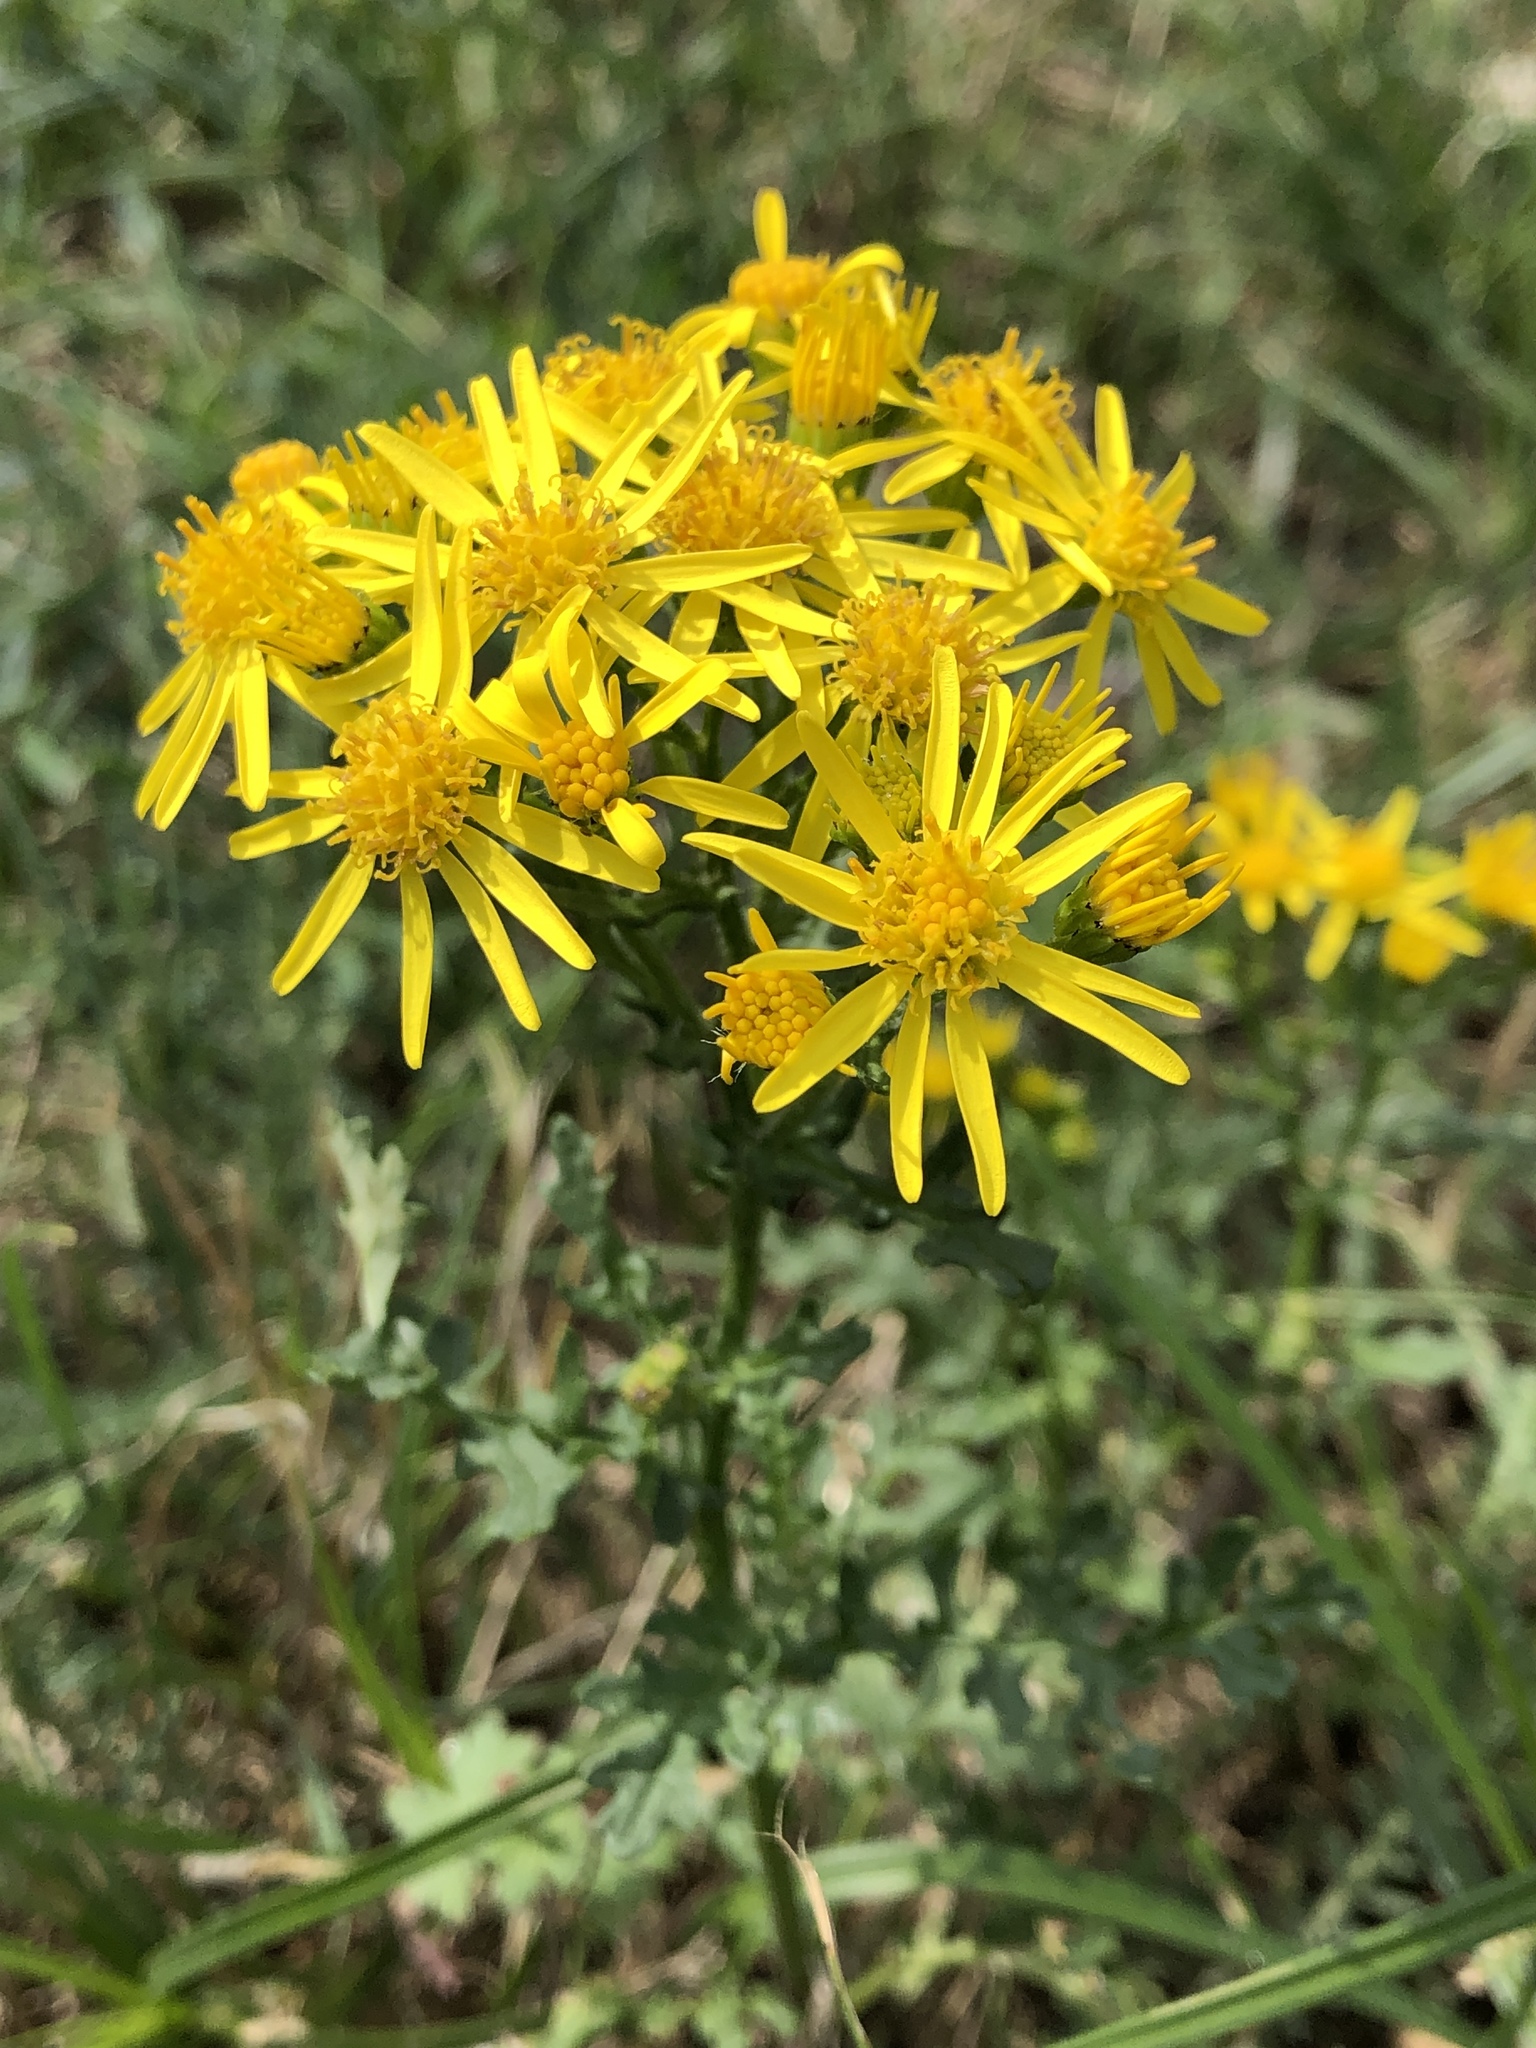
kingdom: Plantae
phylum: Tracheophyta
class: Magnoliopsida
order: Asterales
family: Asteraceae
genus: Jacobaea
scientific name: Jacobaea vulgaris
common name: Stinking willie
